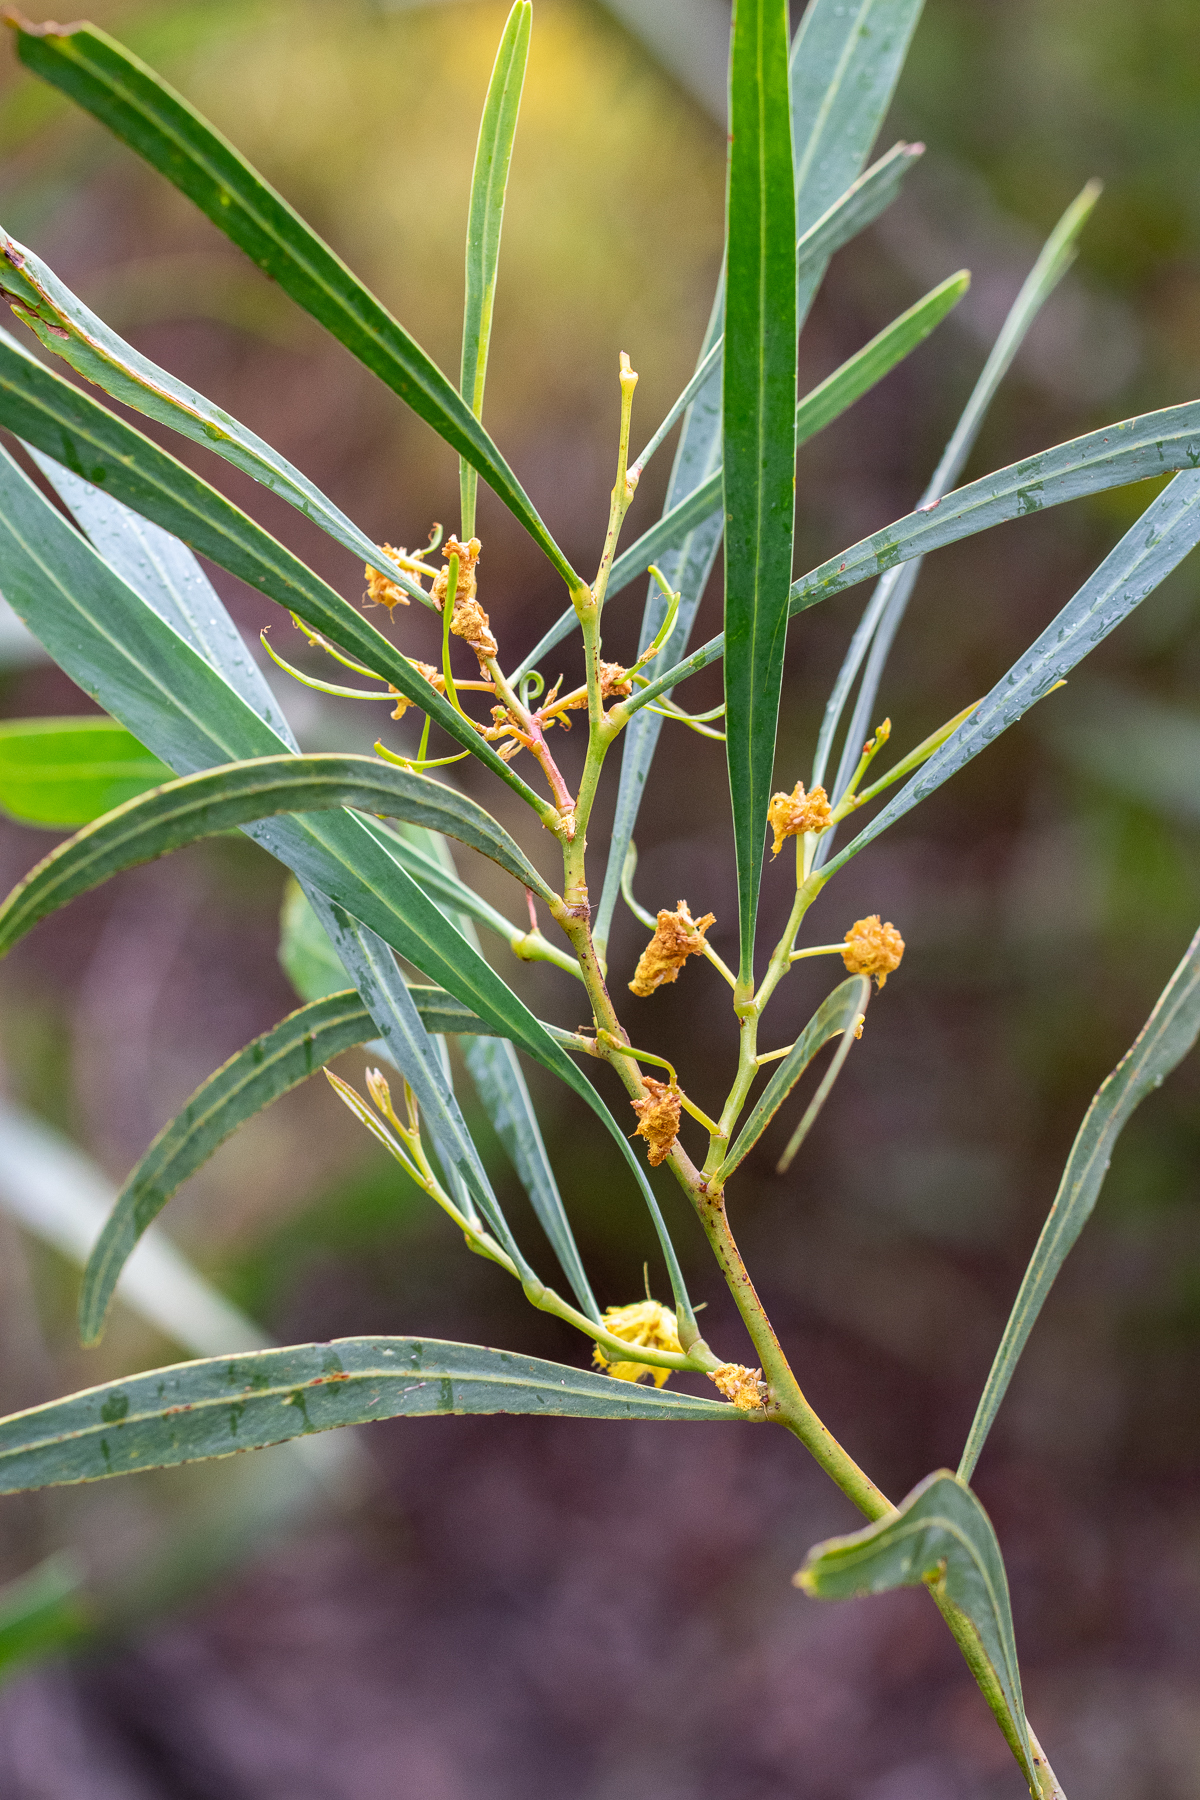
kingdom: Plantae
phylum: Tracheophyta
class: Magnoliopsida
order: Fabales
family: Fabaceae
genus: Acacia
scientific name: Acacia saligna
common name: Orange wattle
